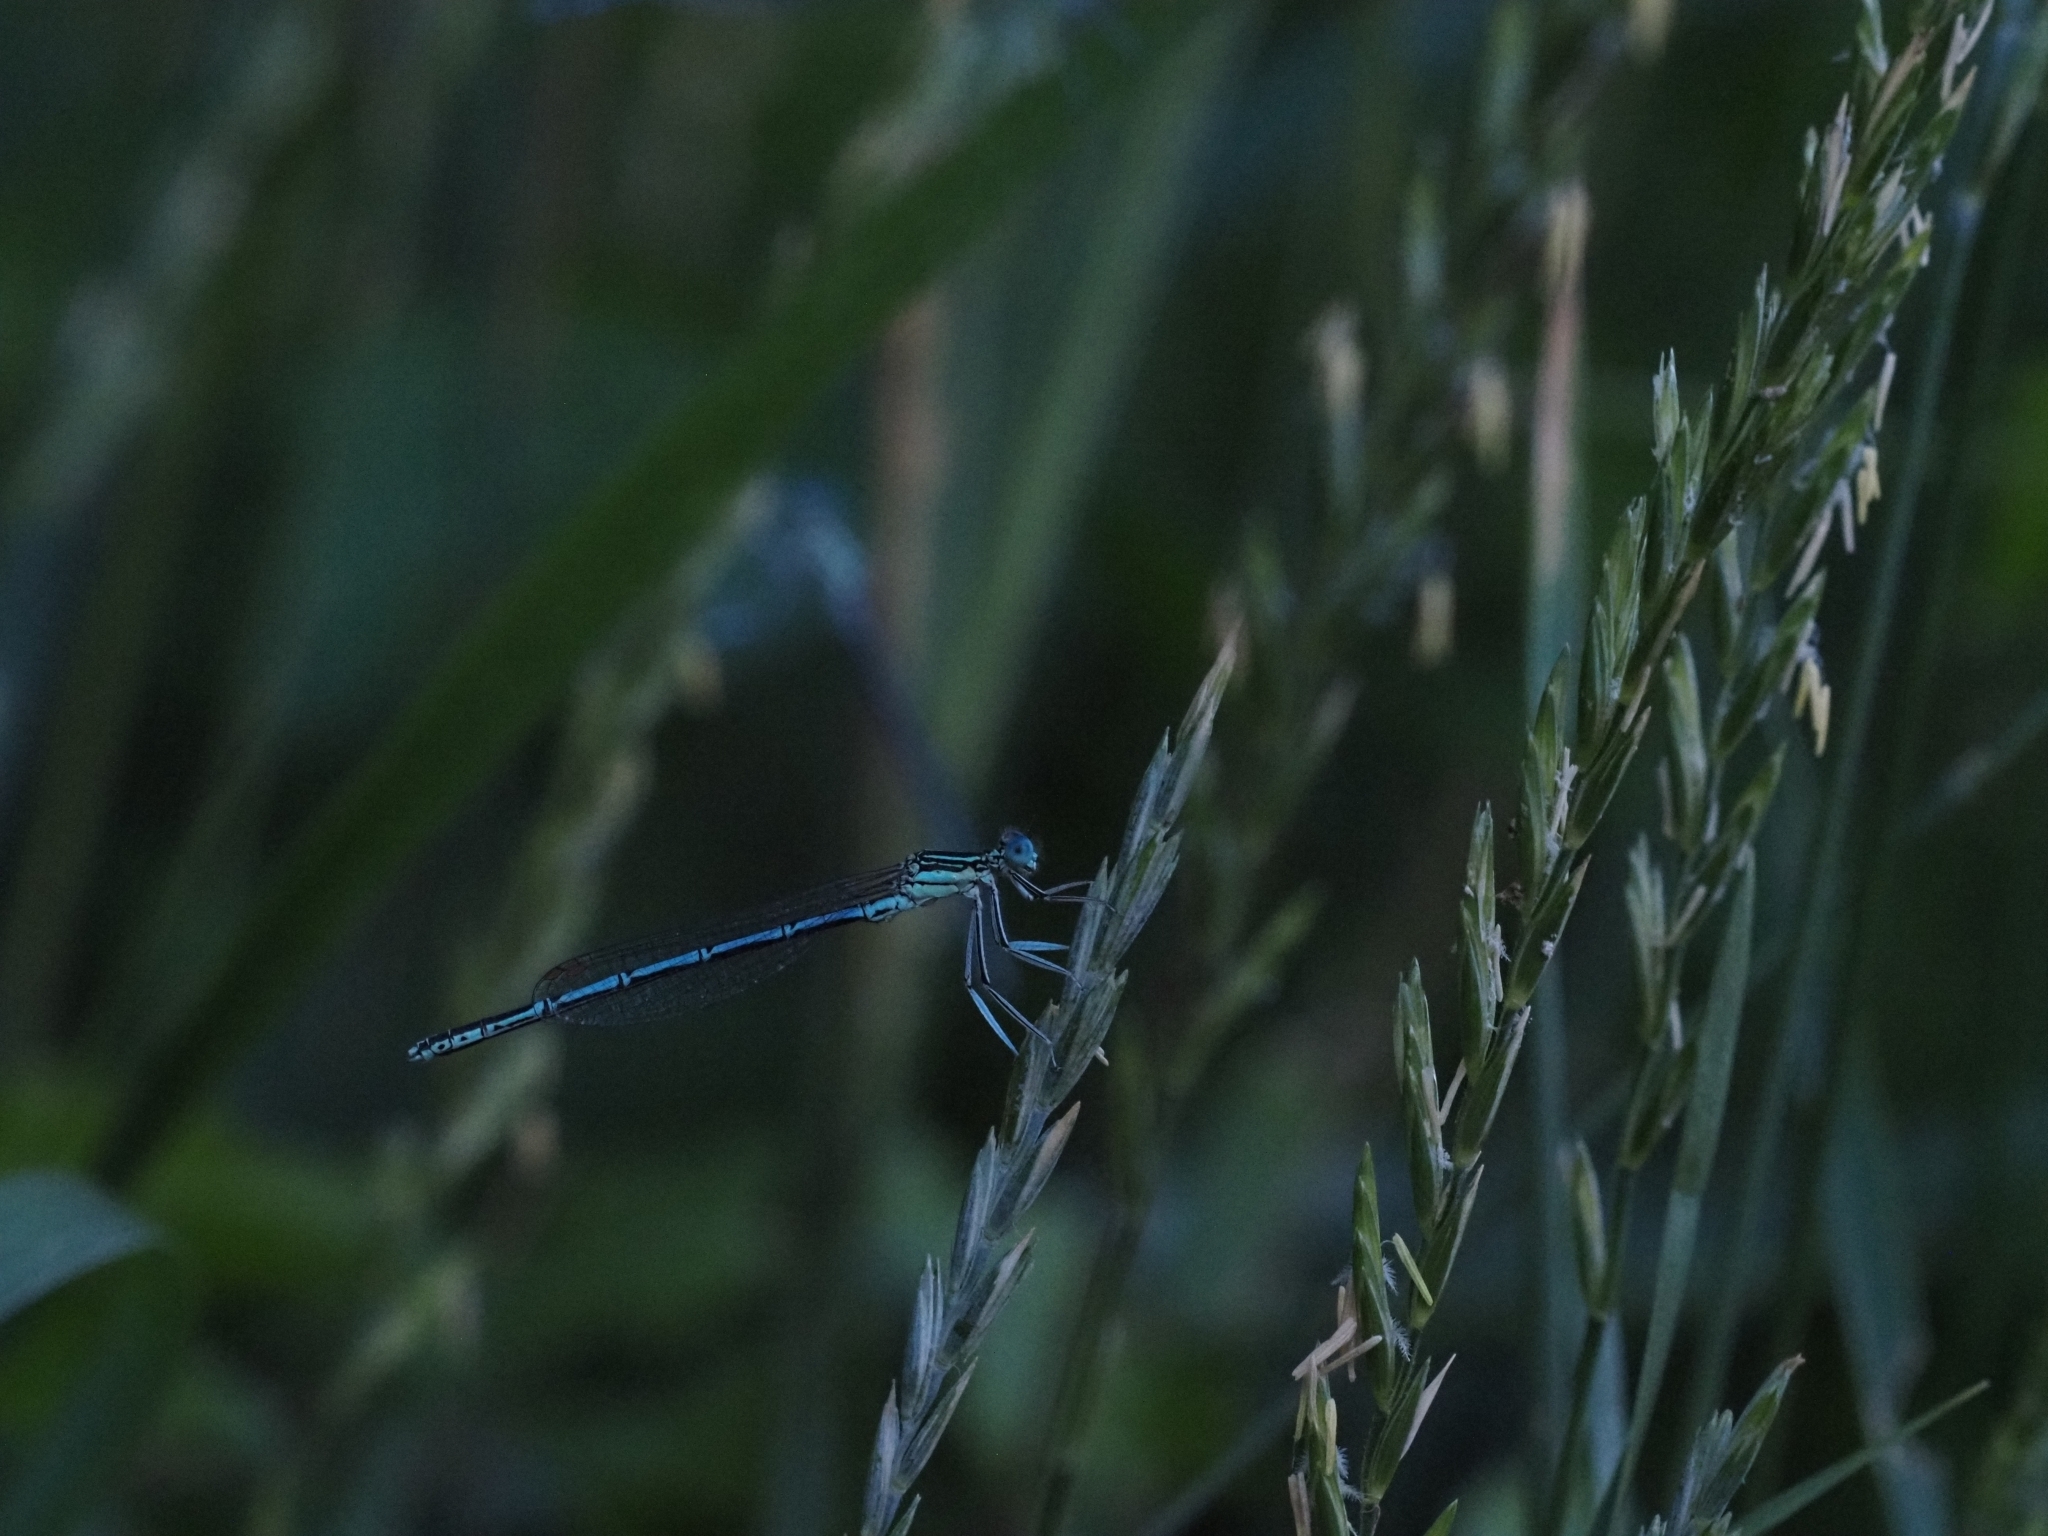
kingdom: Animalia
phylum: Arthropoda
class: Insecta
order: Odonata
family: Platycnemididae
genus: Platycnemis
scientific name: Platycnemis pennipes
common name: White-legged damselfly
